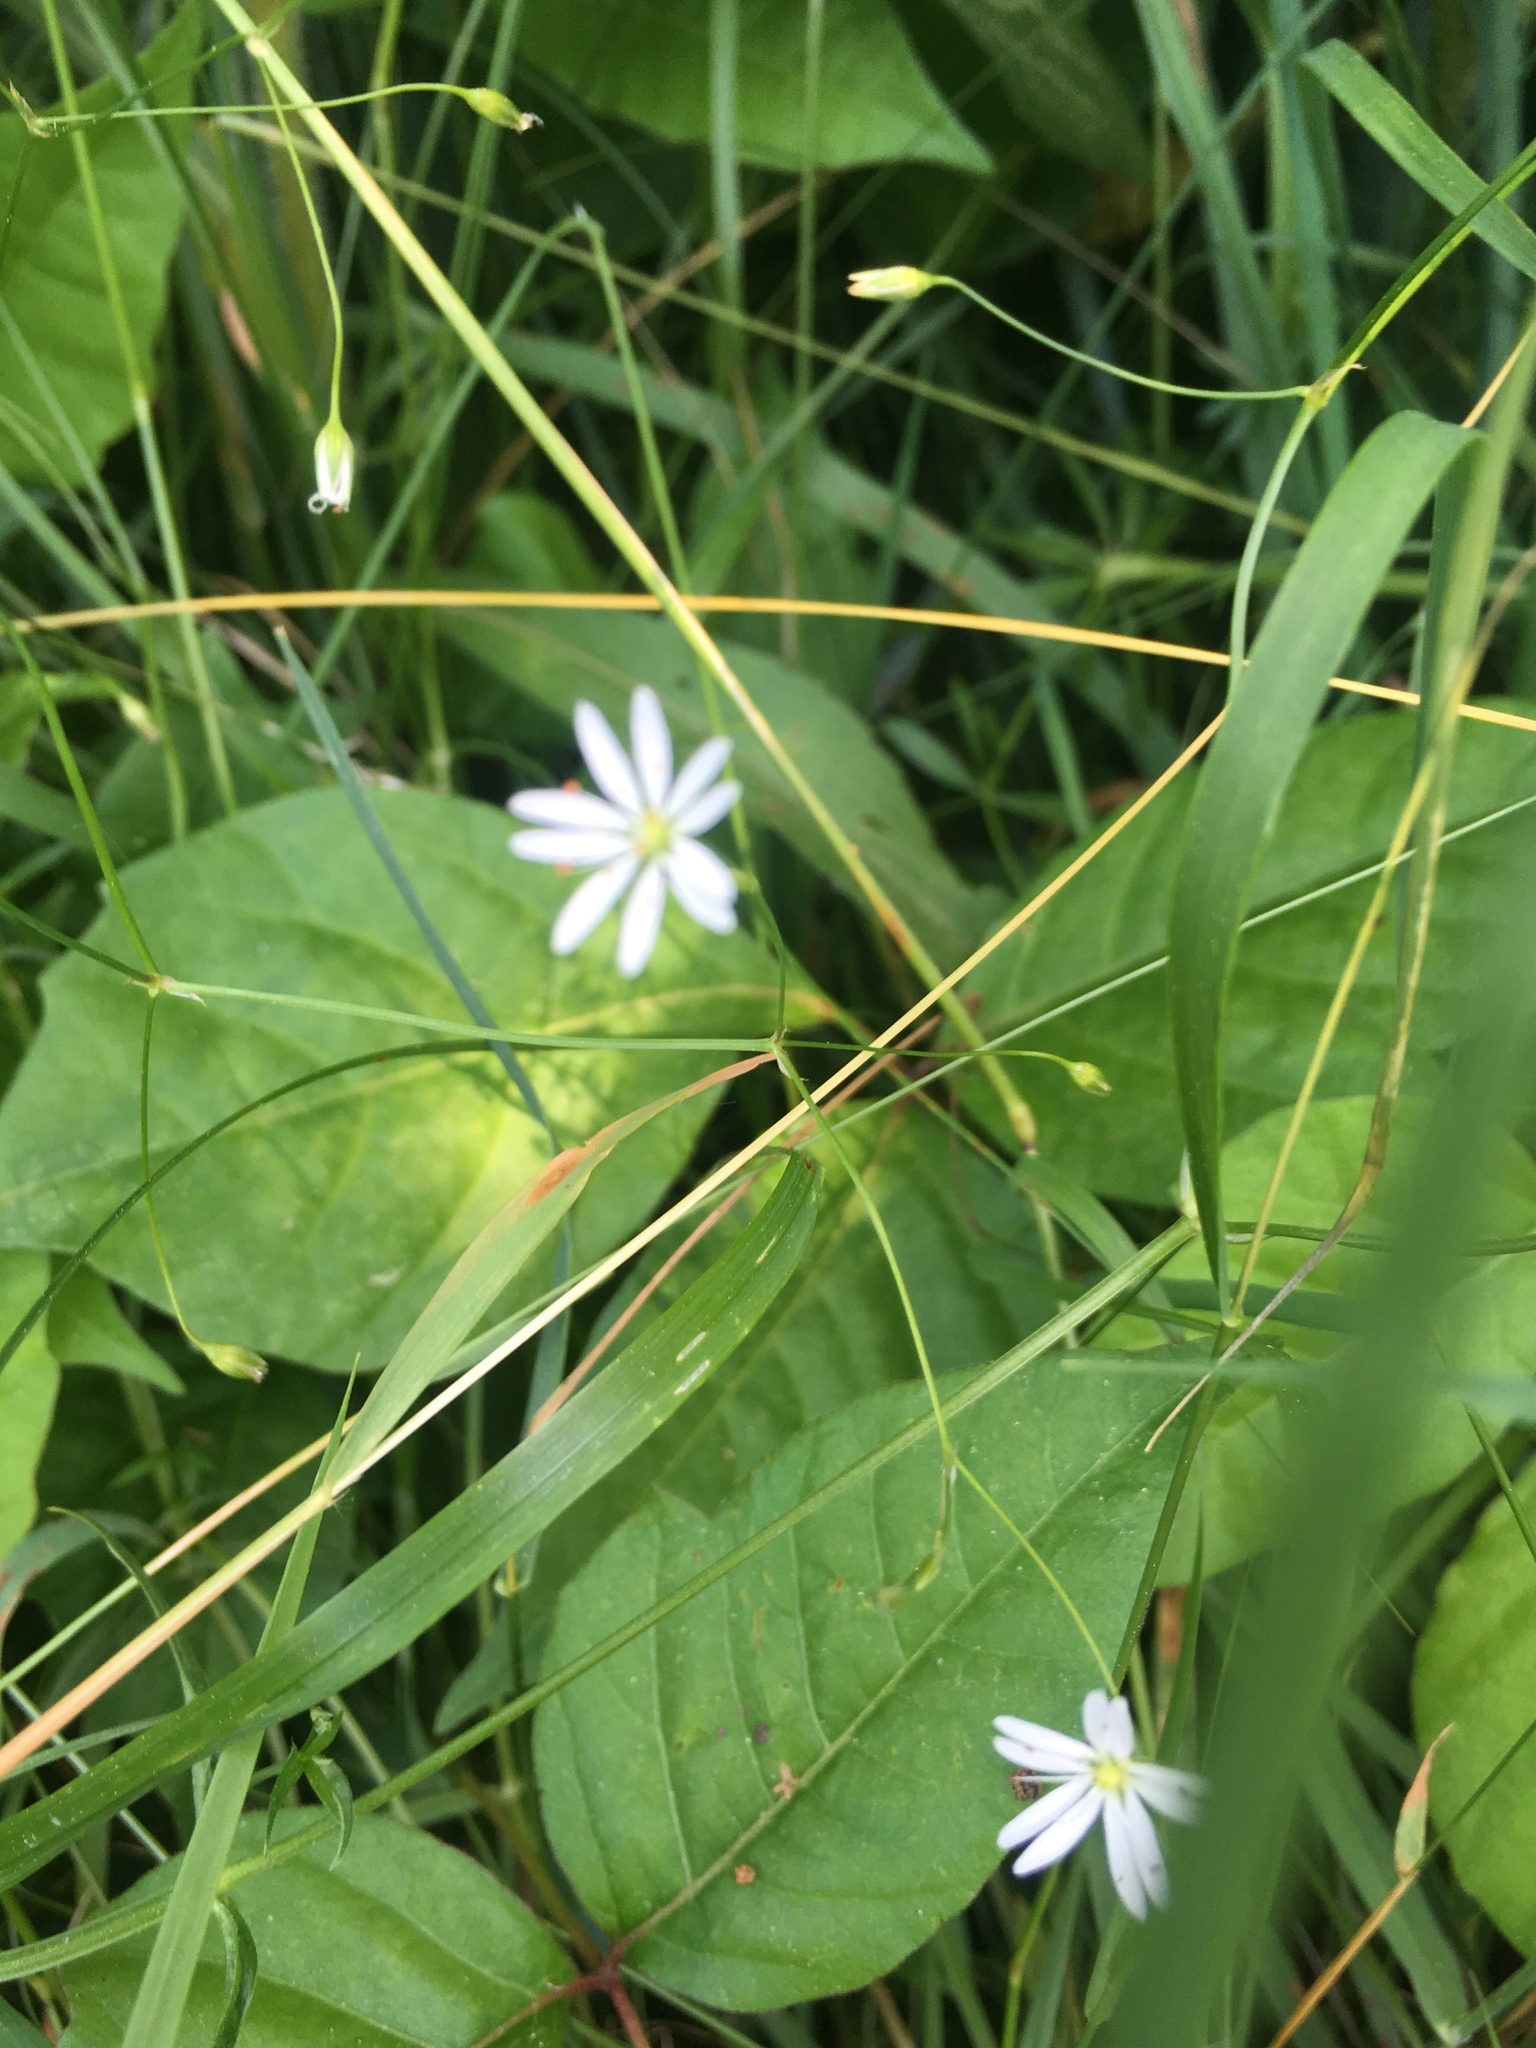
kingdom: Plantae
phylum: Tracheophyta
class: Magnoliopsida
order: Caryophyllales
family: Caryophyllaceae
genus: Stellaria
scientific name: Stellaria media
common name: Common chickweed
